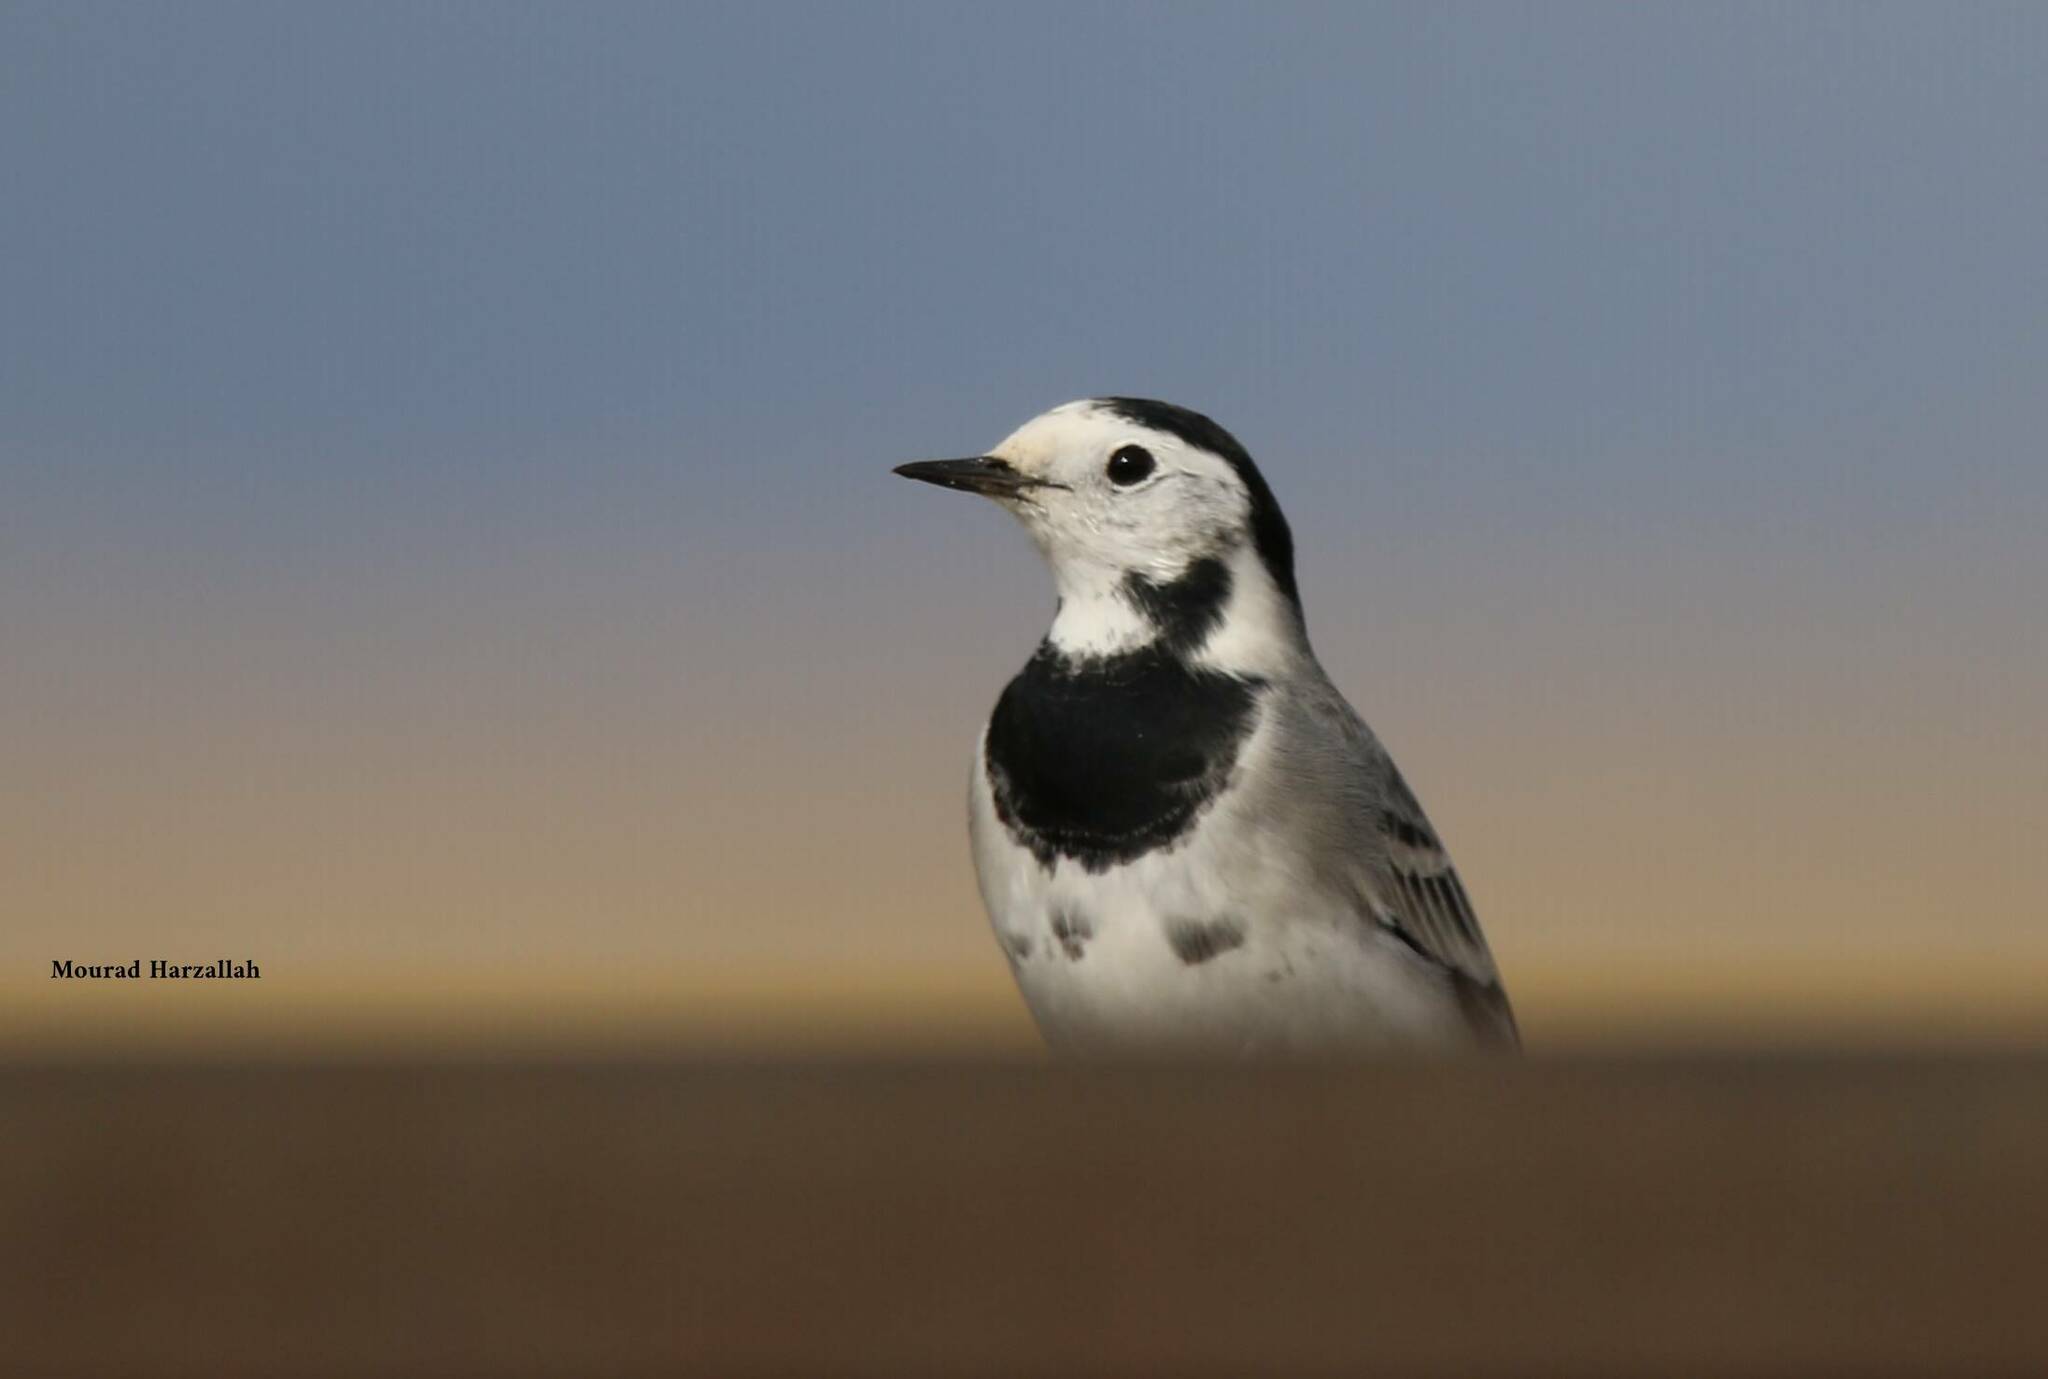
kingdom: Animalia
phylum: Chordata
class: Aves
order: Passeriformes
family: Motacillidae
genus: Motacilla
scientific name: Motacilla alba
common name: White wagtail
